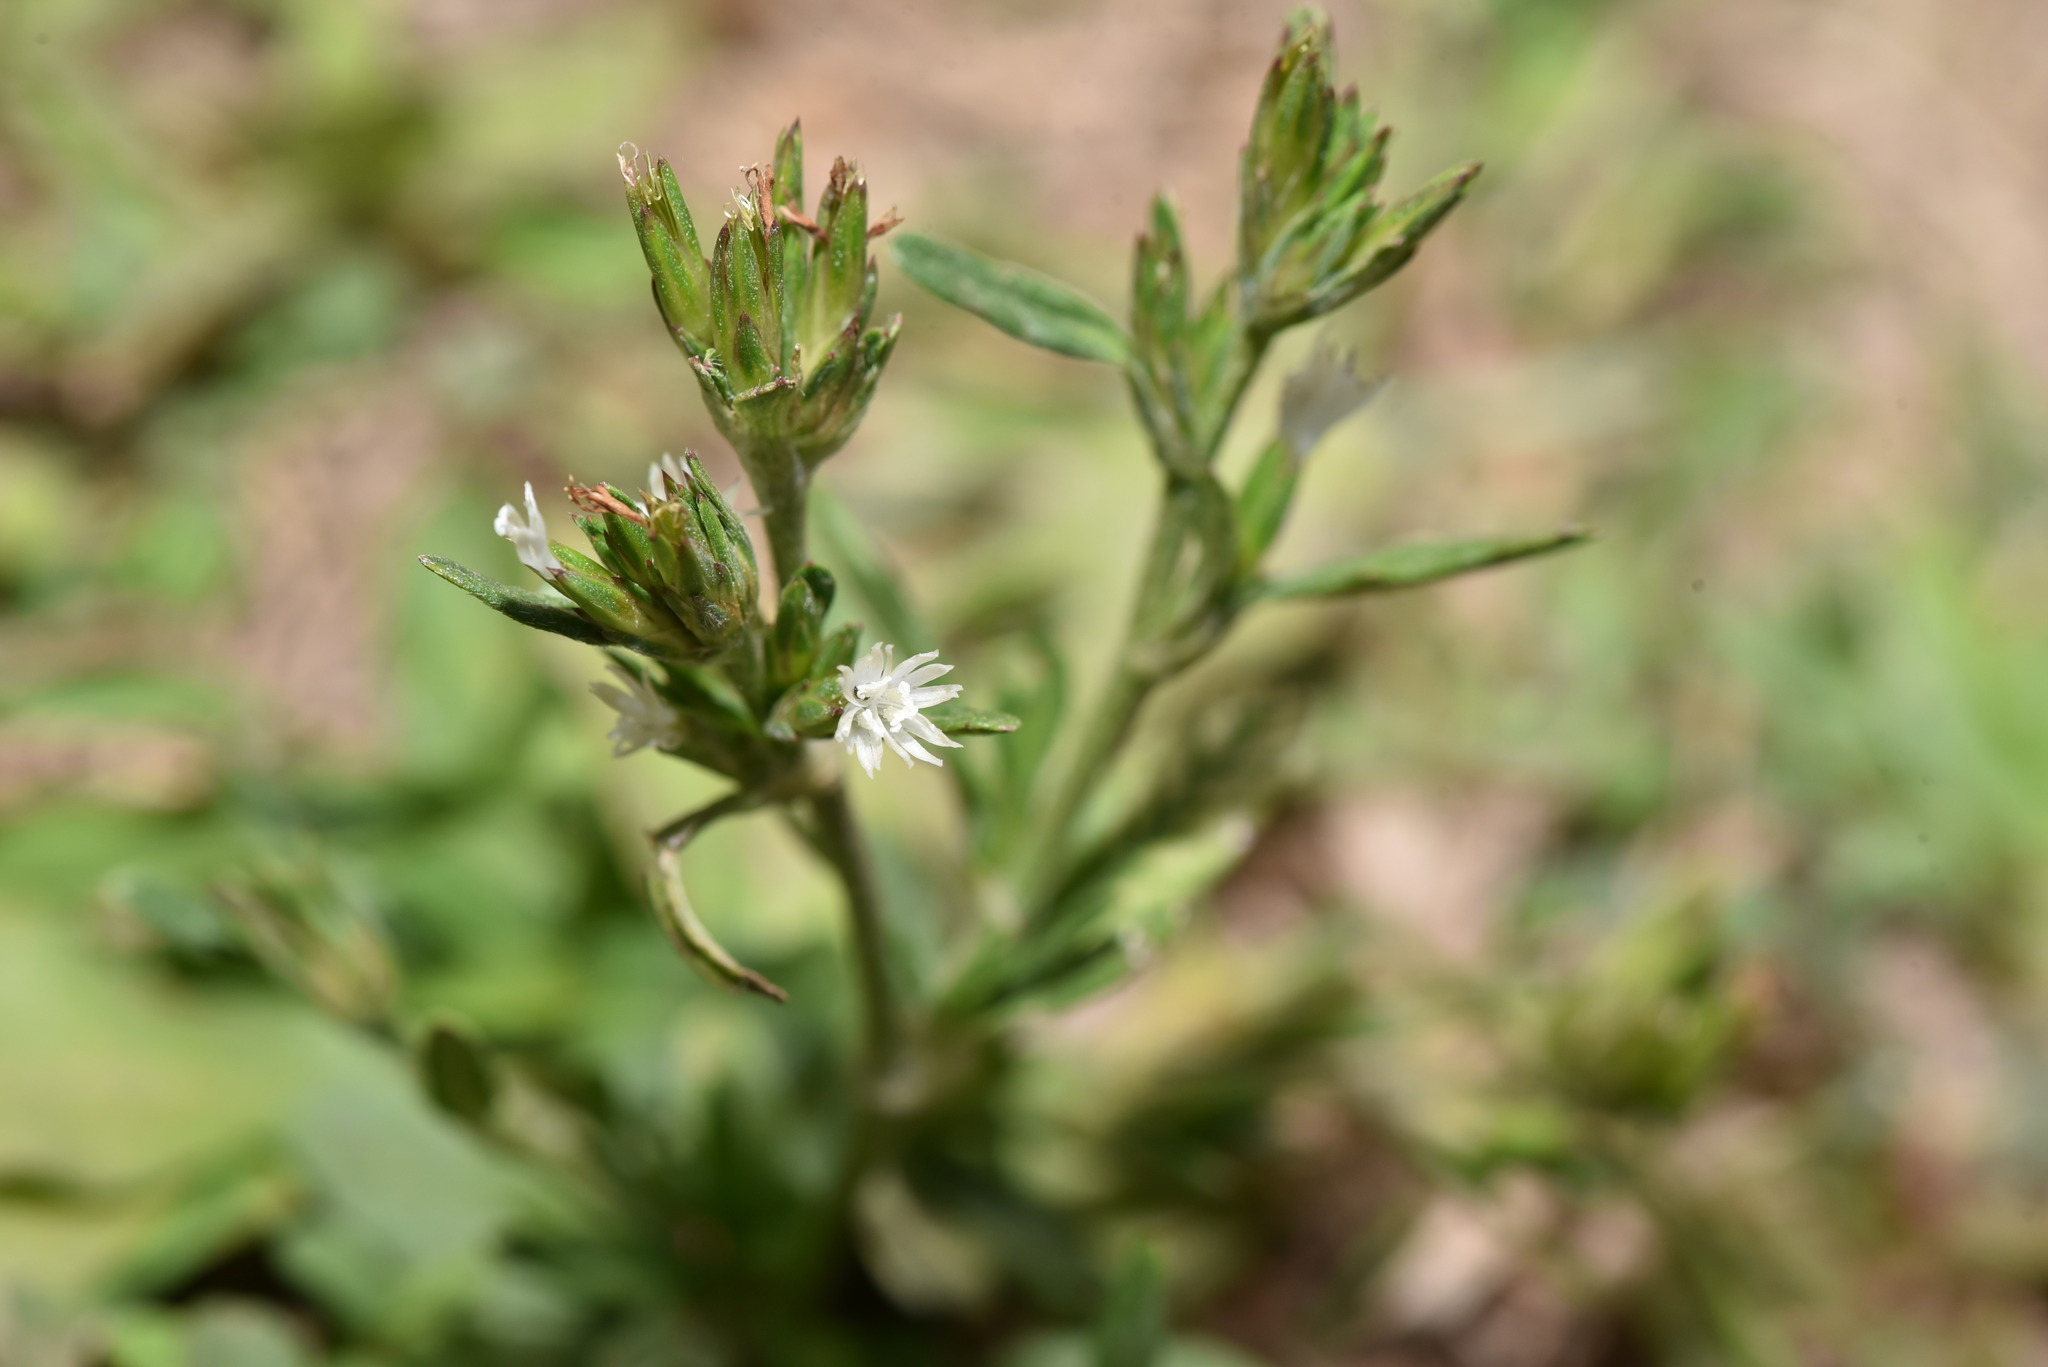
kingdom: Plantae
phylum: Tracheophyta
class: Magnoliopsida
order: Asterales
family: Asteraceae
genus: Pseudelephantopus
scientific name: Pseudelephantopus spicatus
